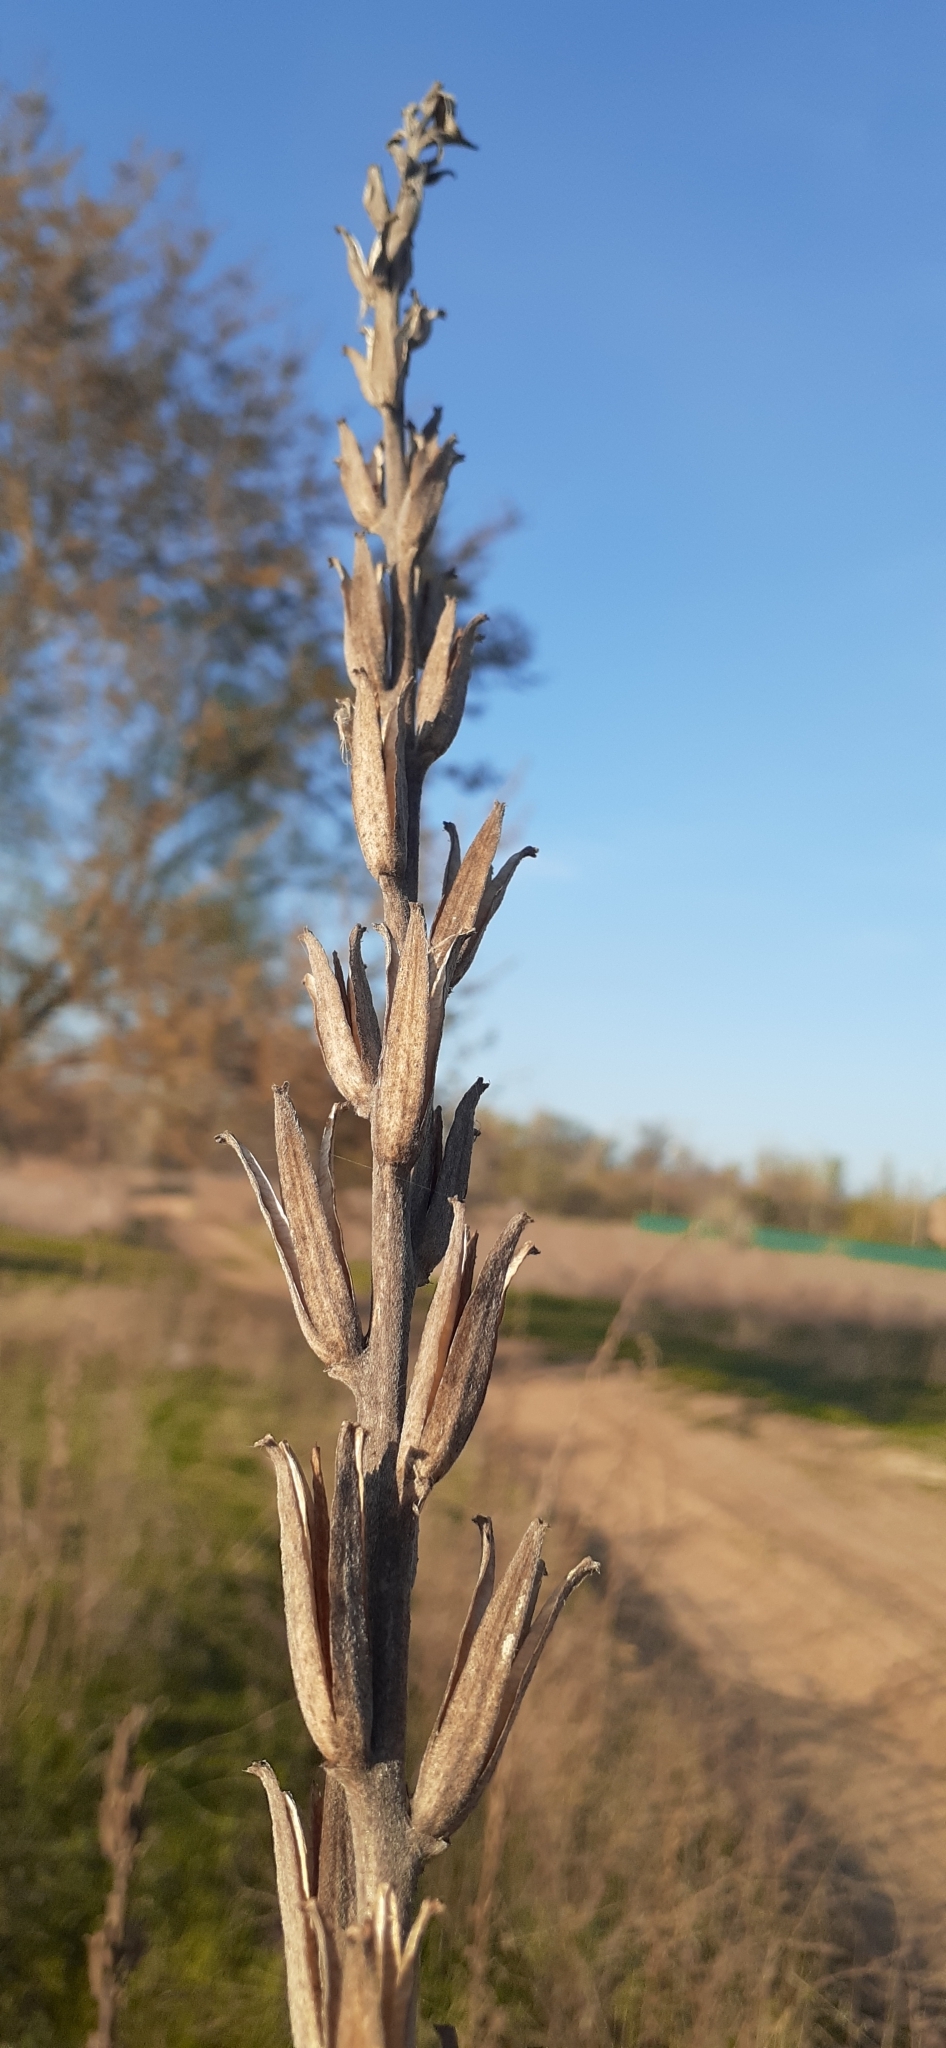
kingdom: Plantae
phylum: Tracheophyta
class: Magnoliopsida
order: Myrtales
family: Onagraceae
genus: Oenothera
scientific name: Oenothera villosa
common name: Hairy evening-primrose
